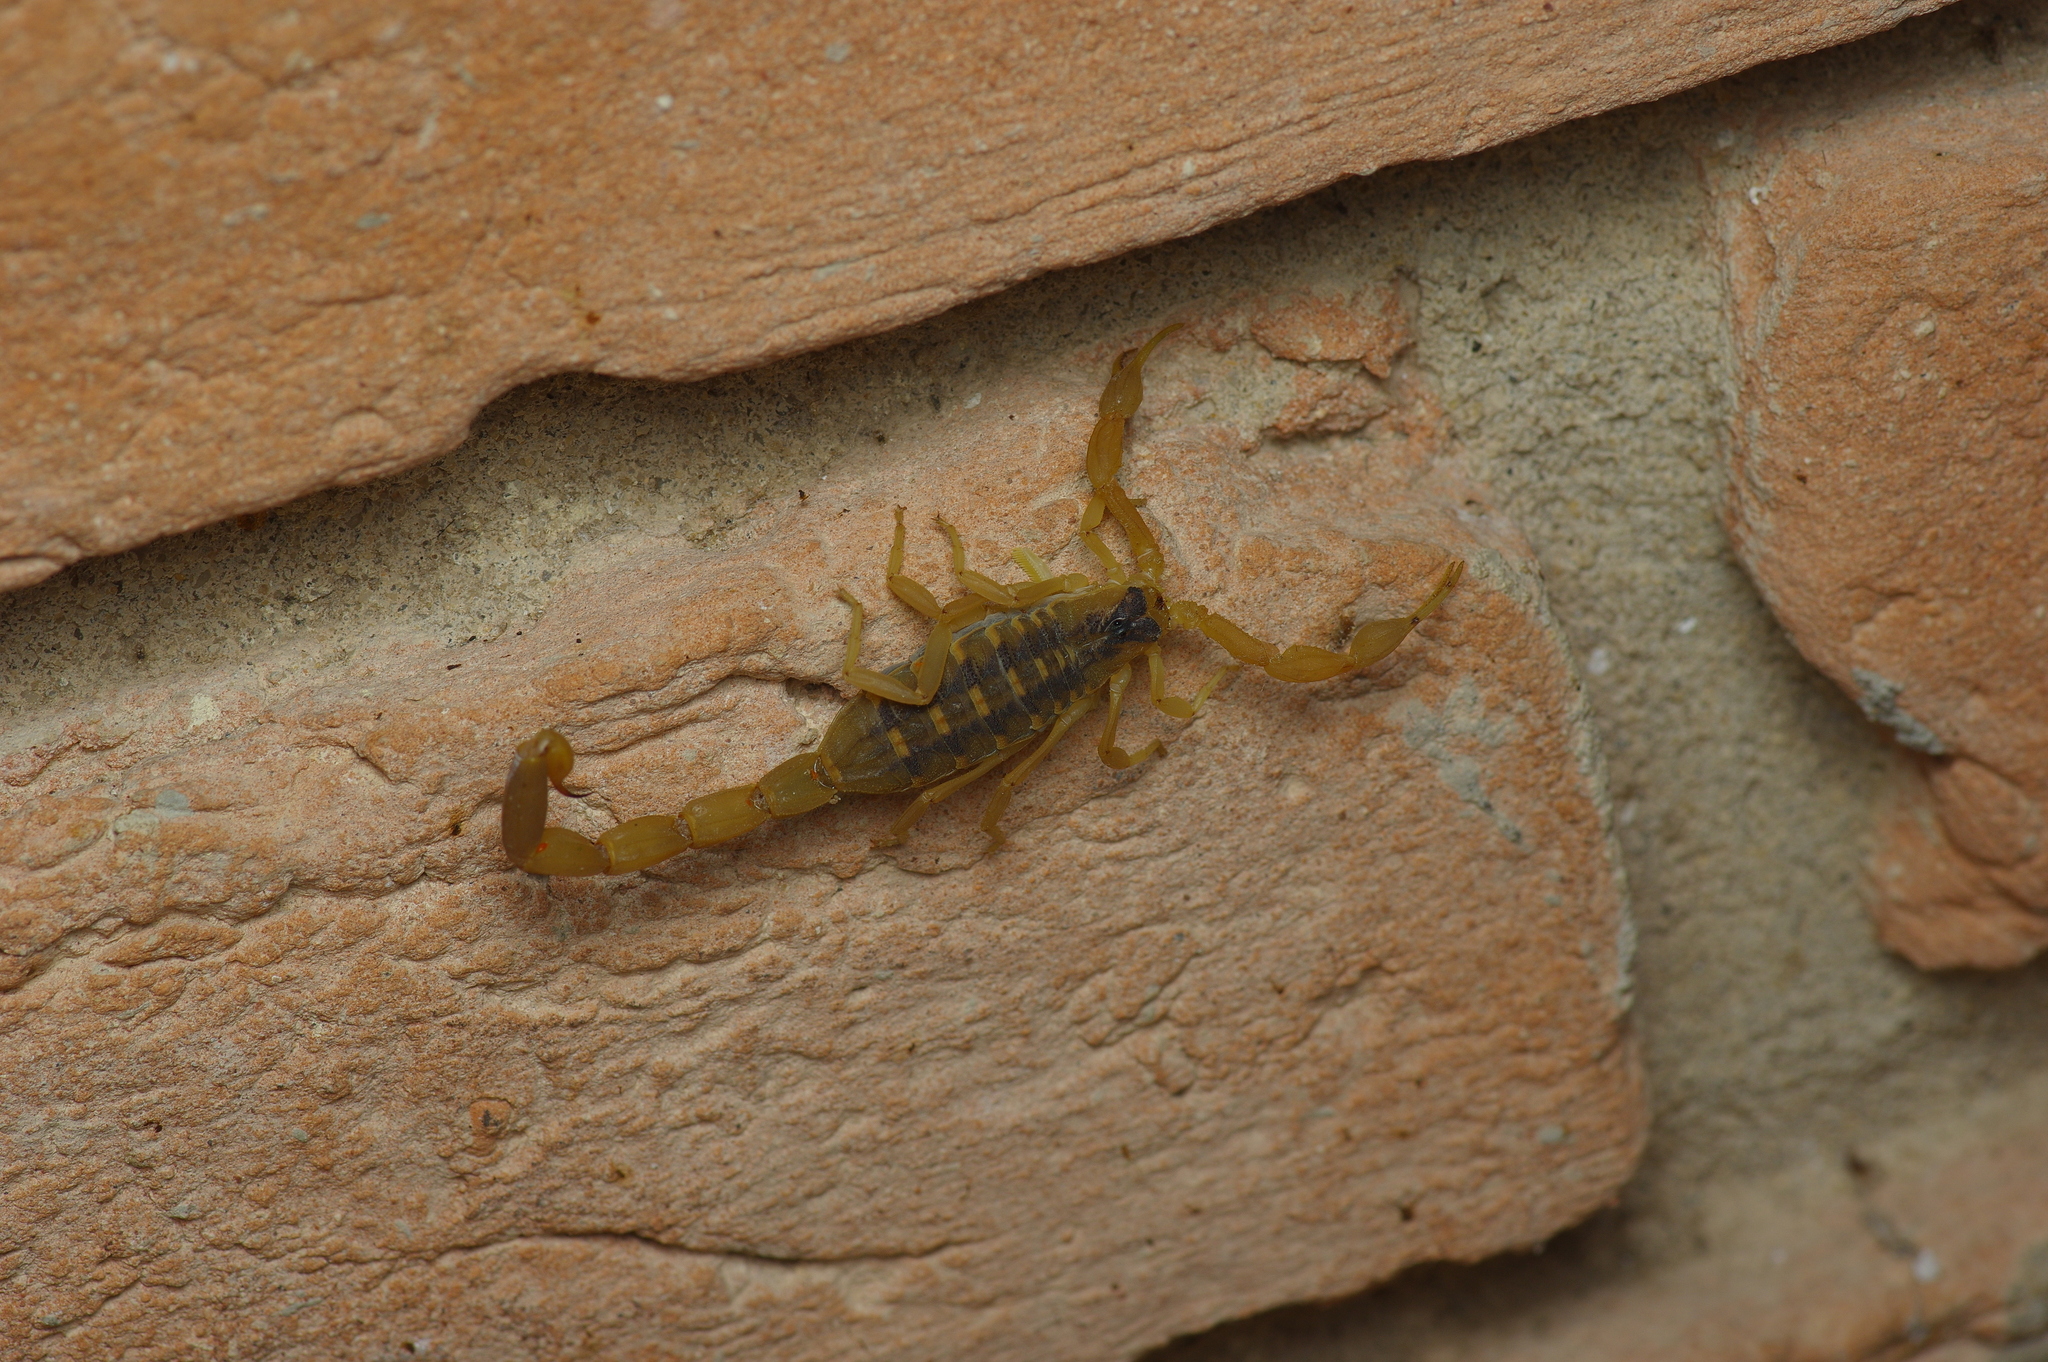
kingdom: Animalia
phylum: Arthropoda
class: Arachnida
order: Scorpiones
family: Buthidae
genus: Centruroides
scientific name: Centruroides vittatus
